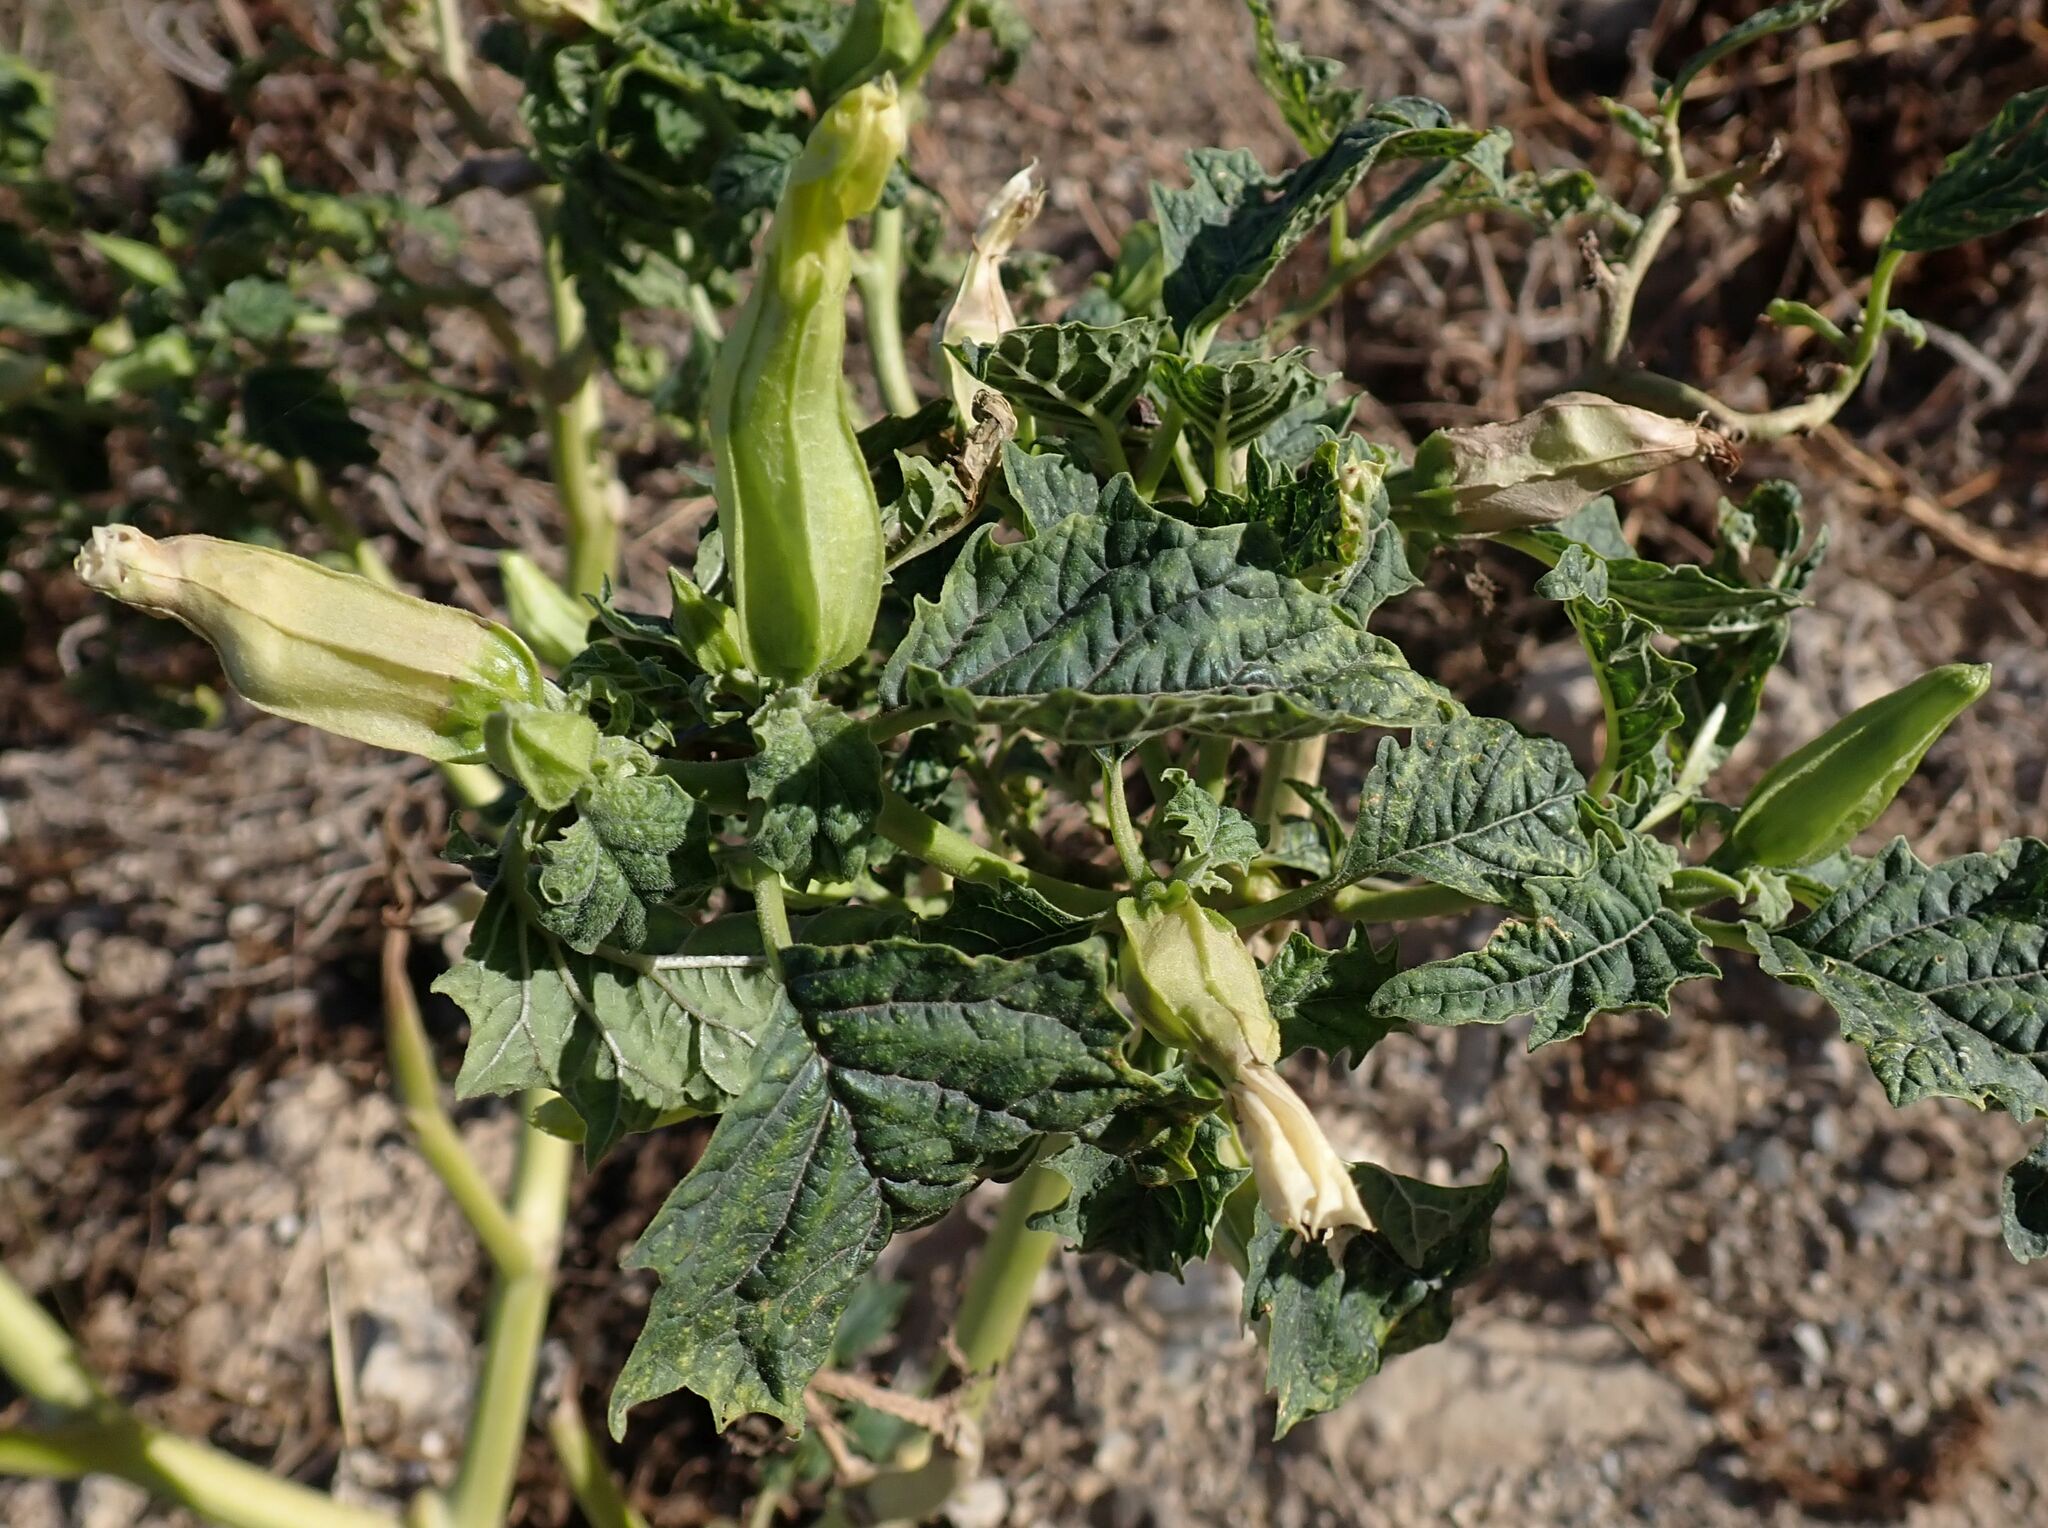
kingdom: Plantae
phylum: Tracheophyta
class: Magnoliopsida
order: Solanales
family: Solanaceae
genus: Datura
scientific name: Datura stramonium
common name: Thorn-apple
